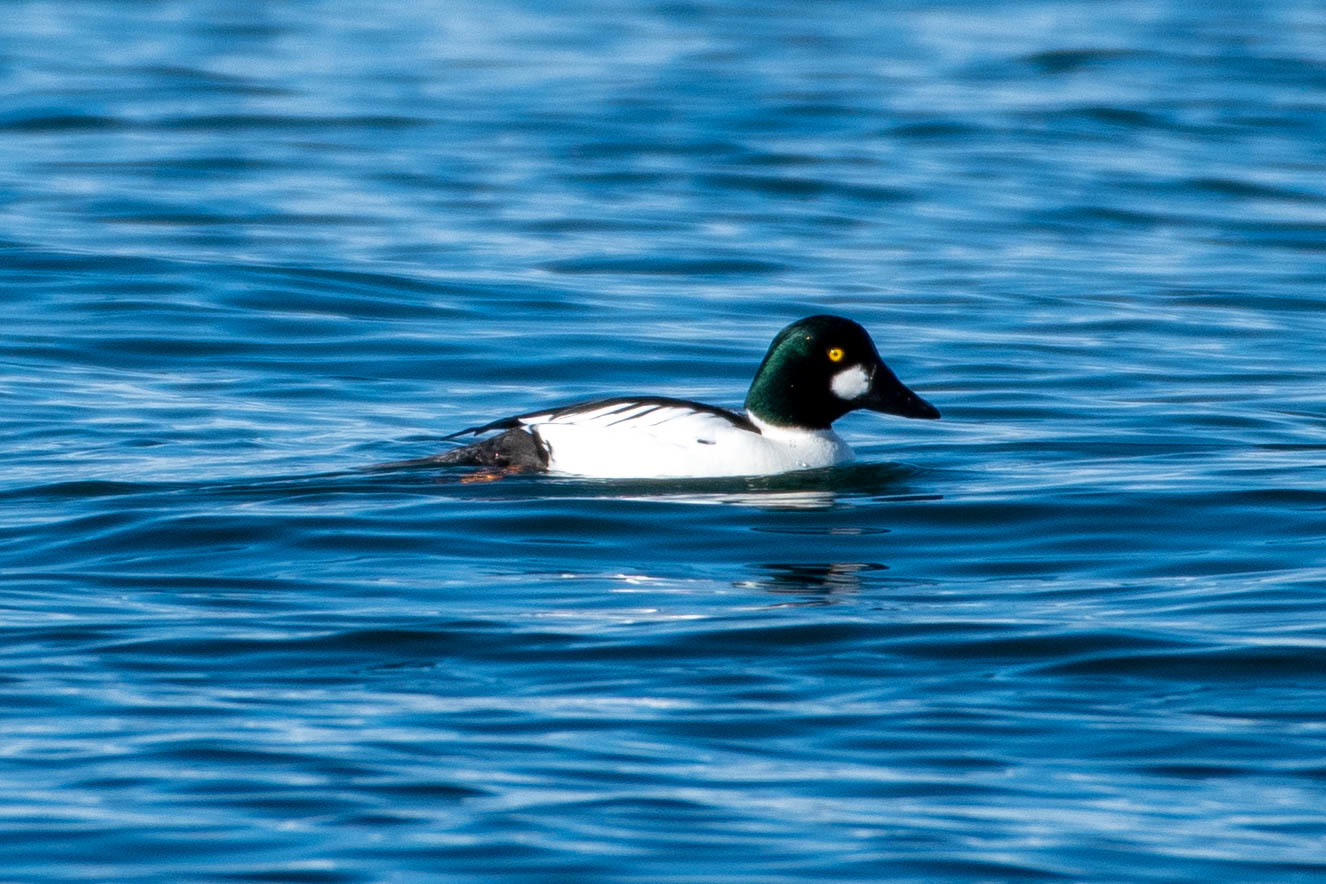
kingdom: Animalia
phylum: Chordata
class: Aves
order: Anseriformes
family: Anatidae
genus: Bucephala
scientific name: Bucephala clangula
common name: Common goldeneye
